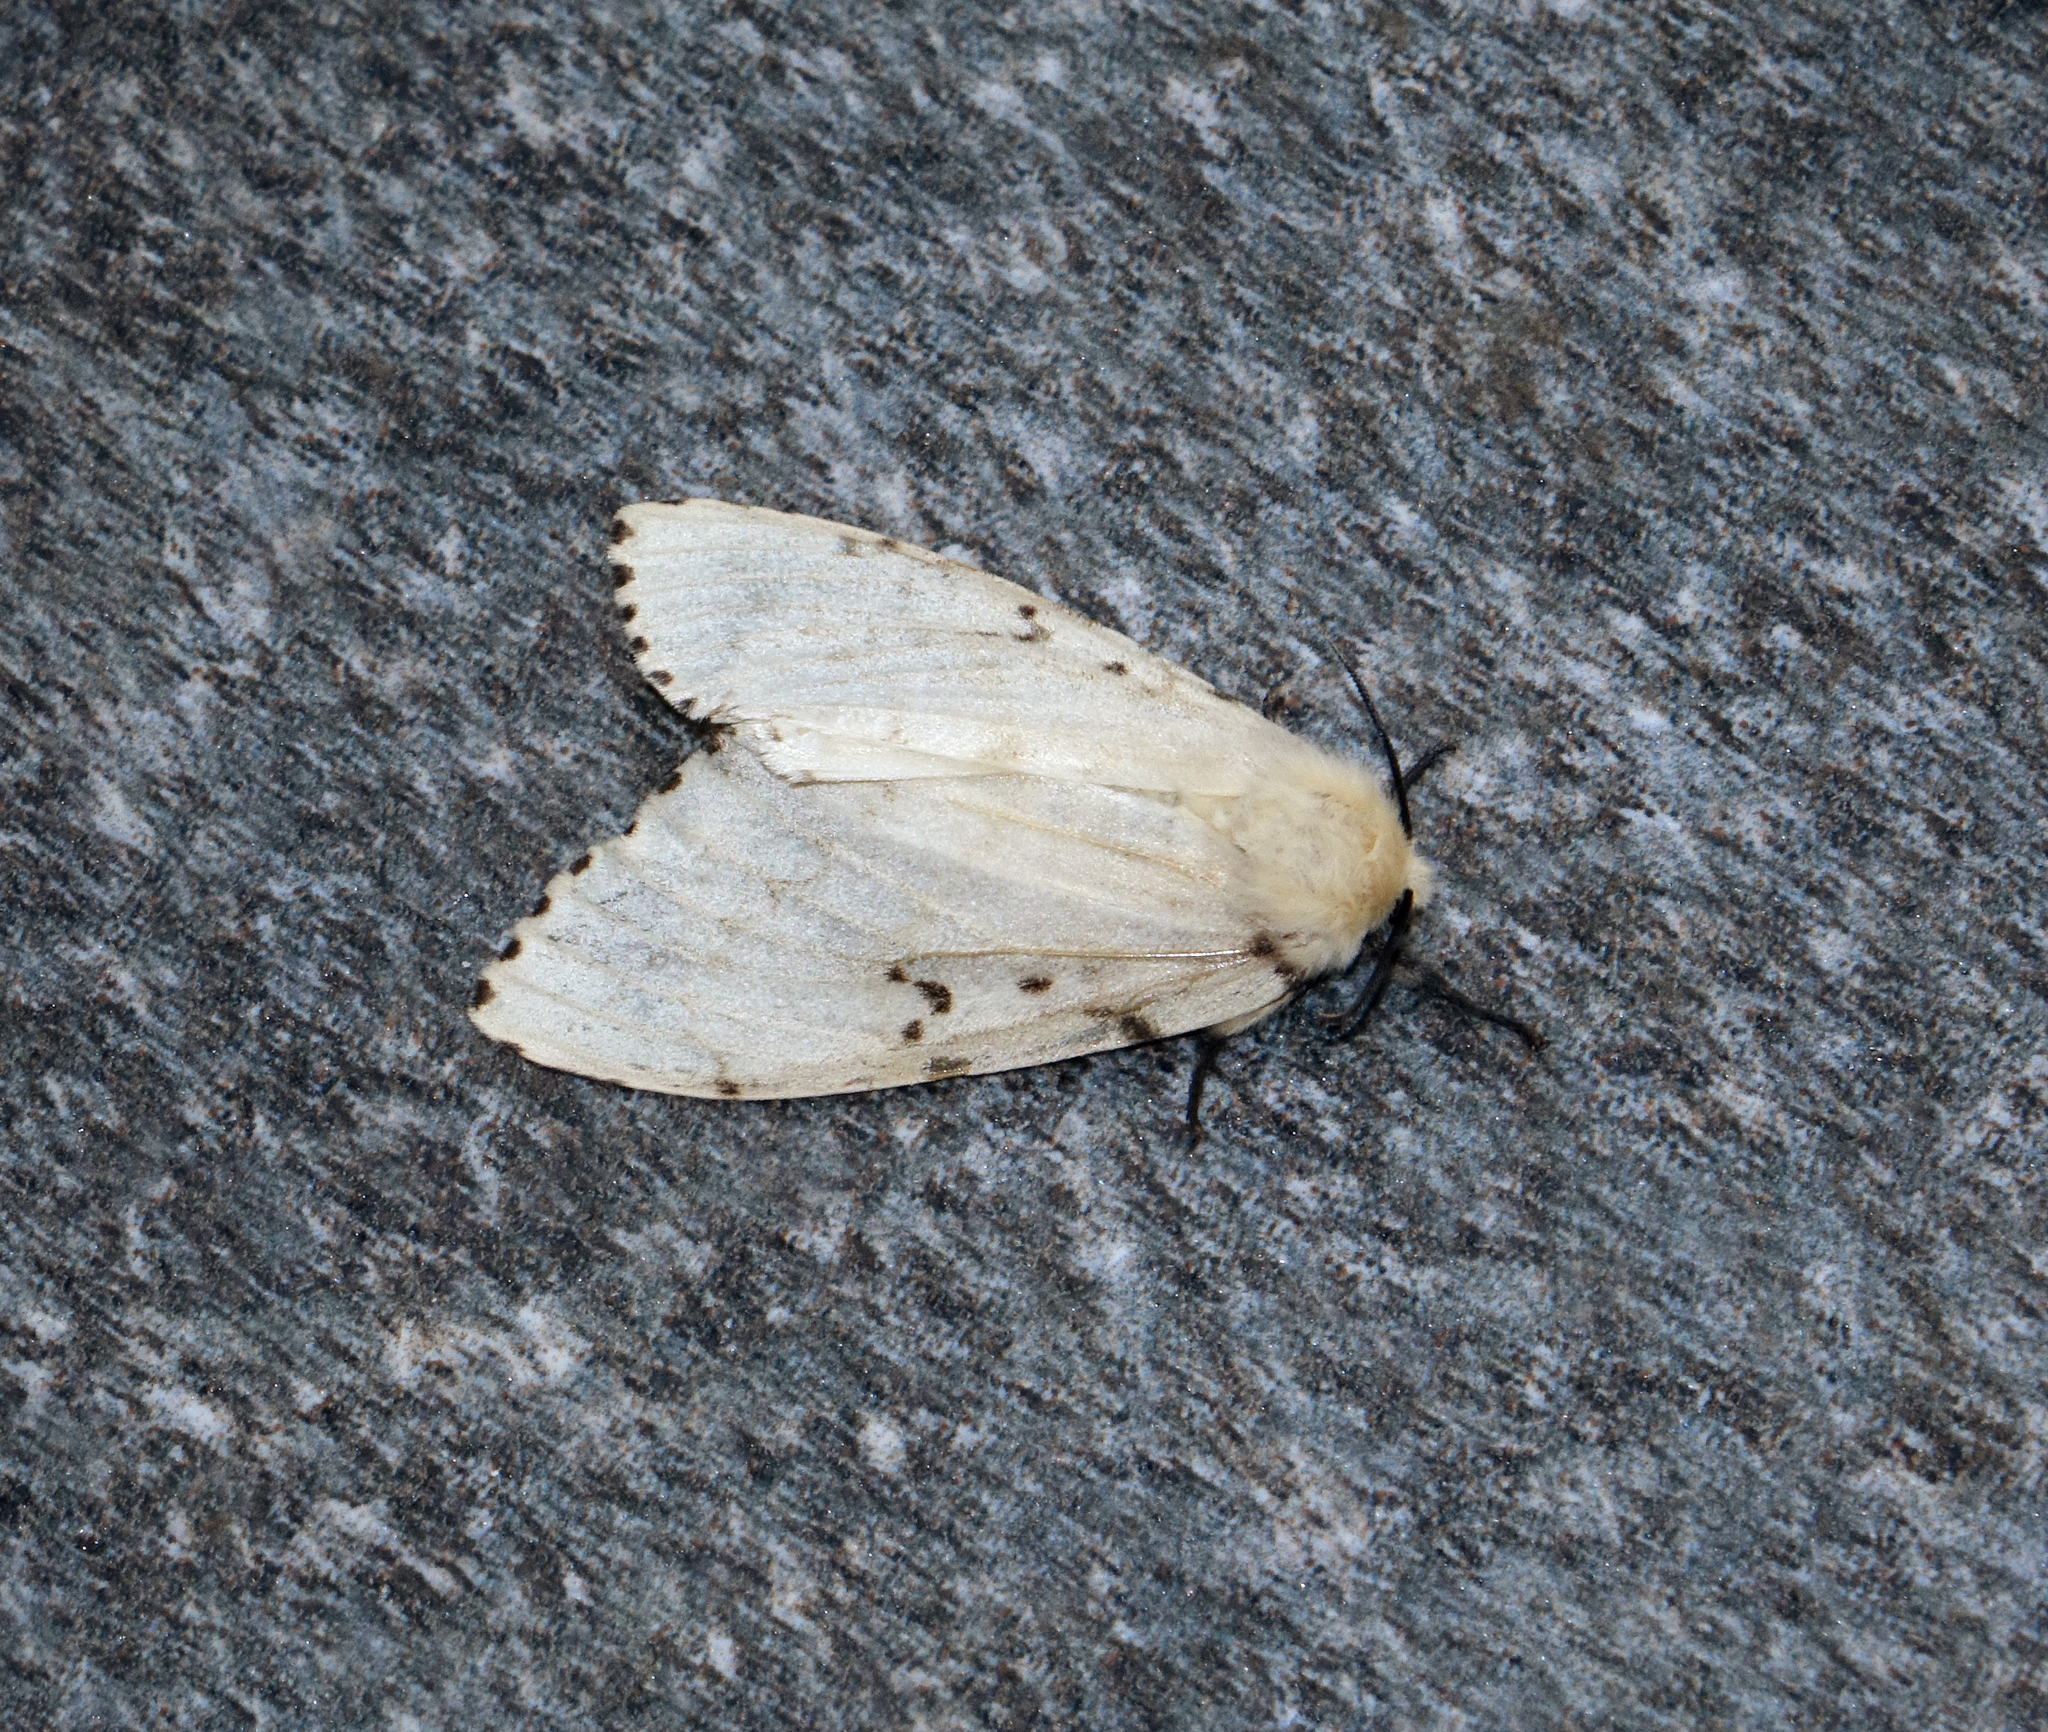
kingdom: Animalia
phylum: Arthropoda
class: Insecta
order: Lepidoptera
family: Erebidae
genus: Lymantria
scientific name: Lymantria dispar
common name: Gypsy moth
